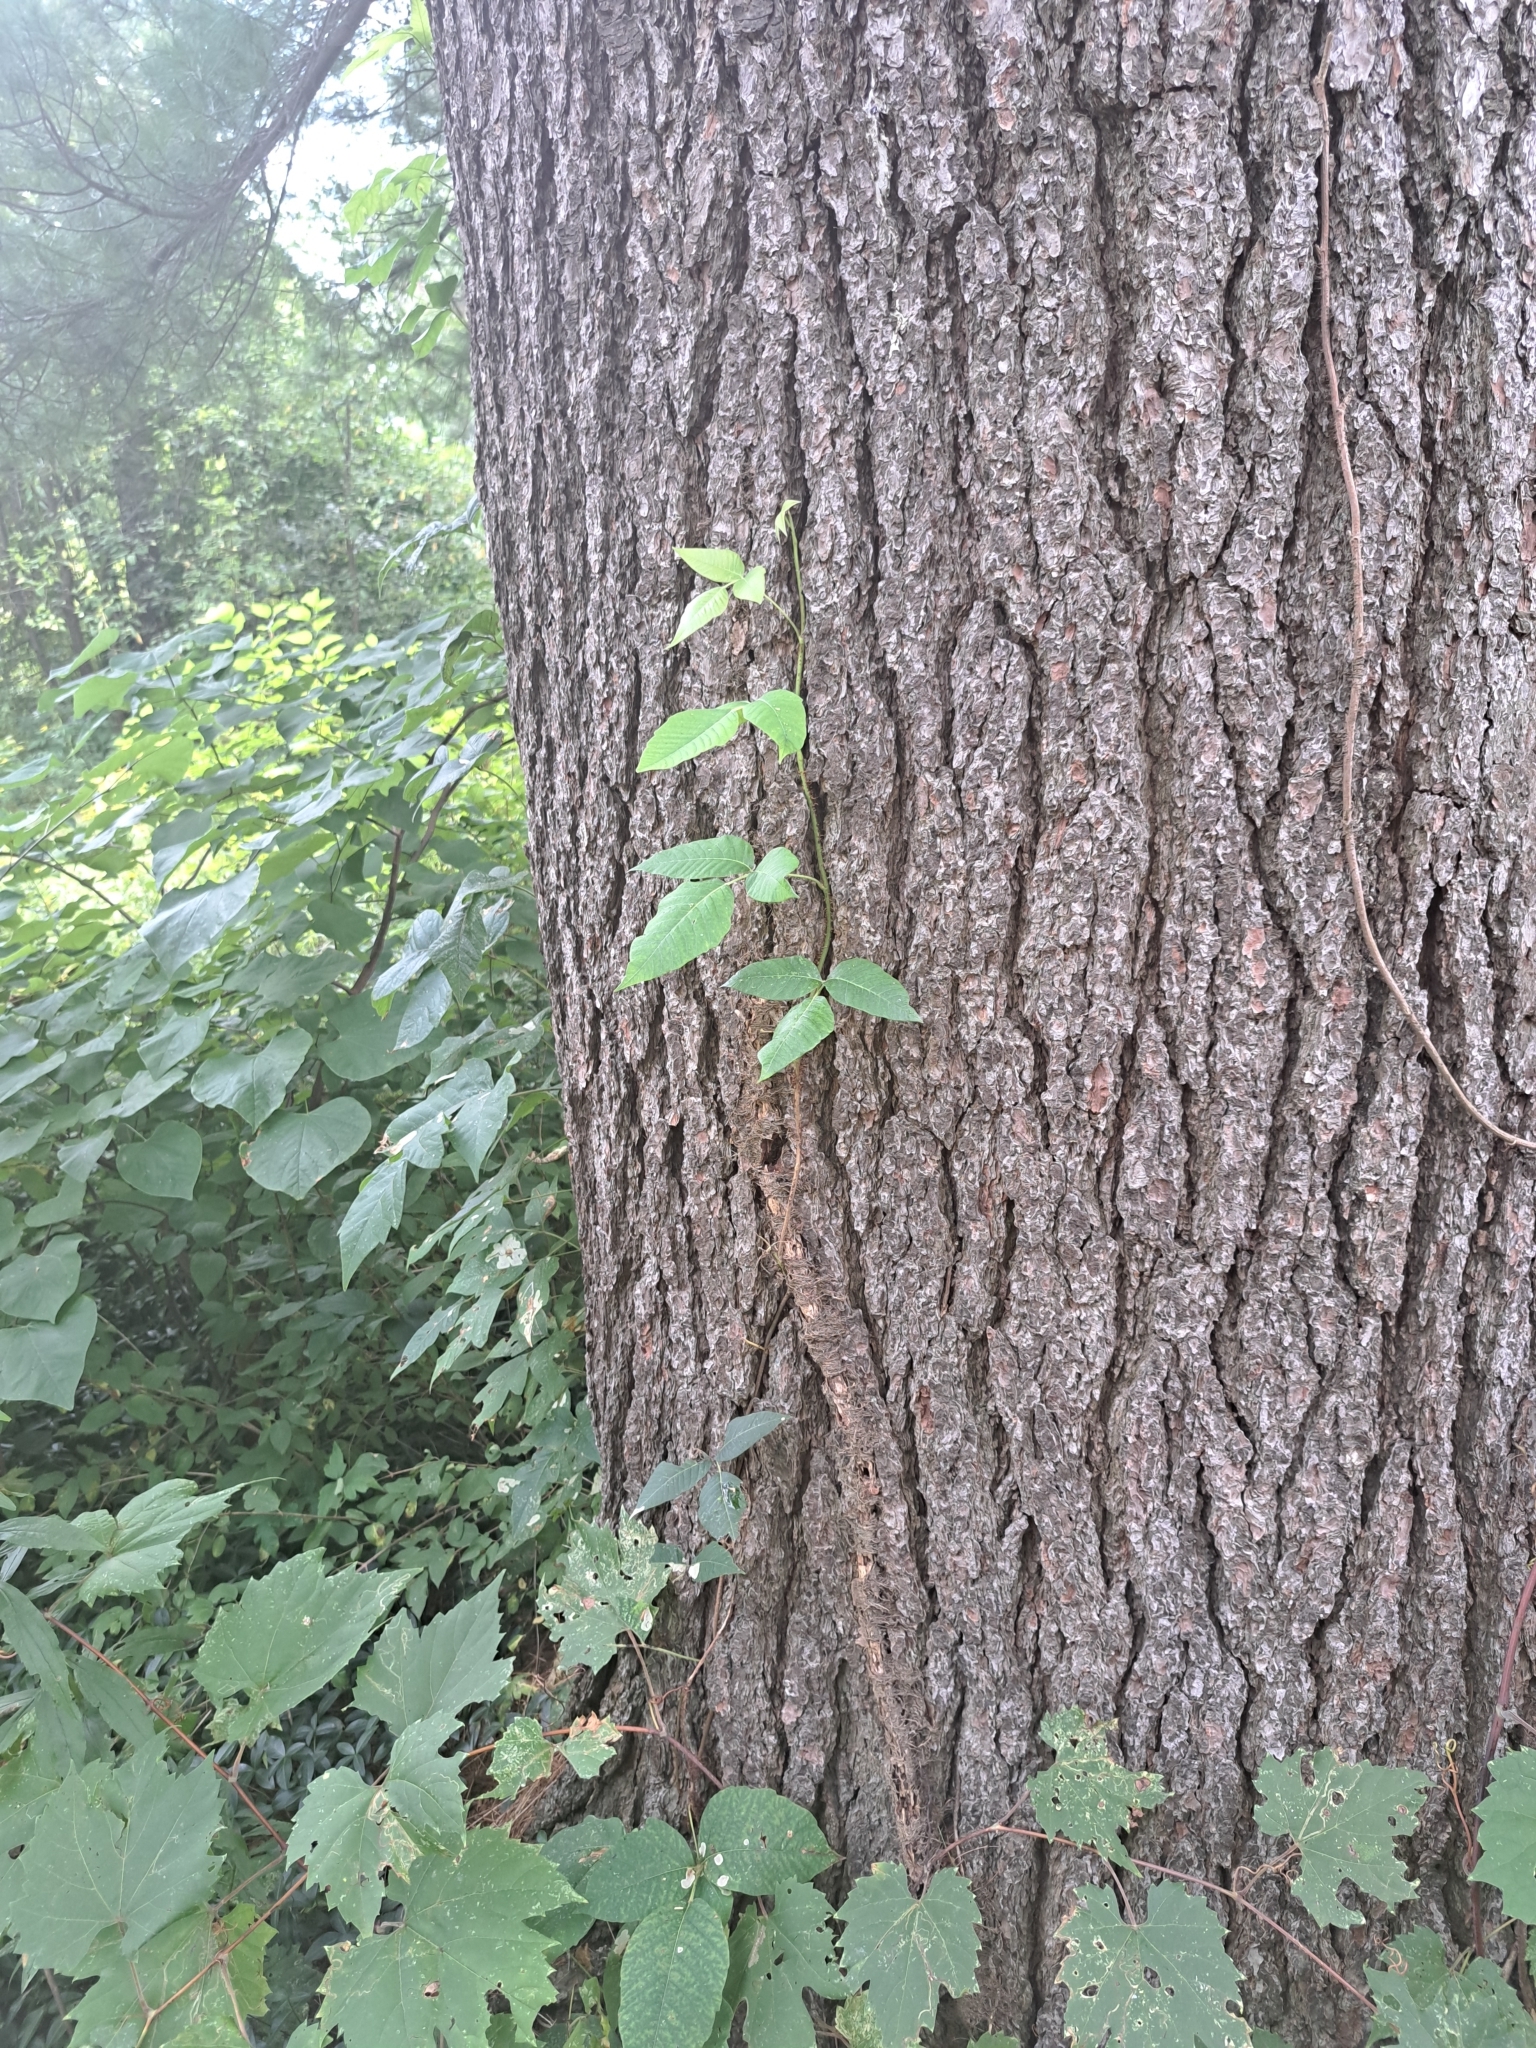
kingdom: Plantae
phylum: Tracheophyta
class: Magnoliopsida
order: Sapindales
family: Anacardiaceae
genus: Toxicodendron
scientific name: Toxicodendron radicans
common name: Poison ivy
